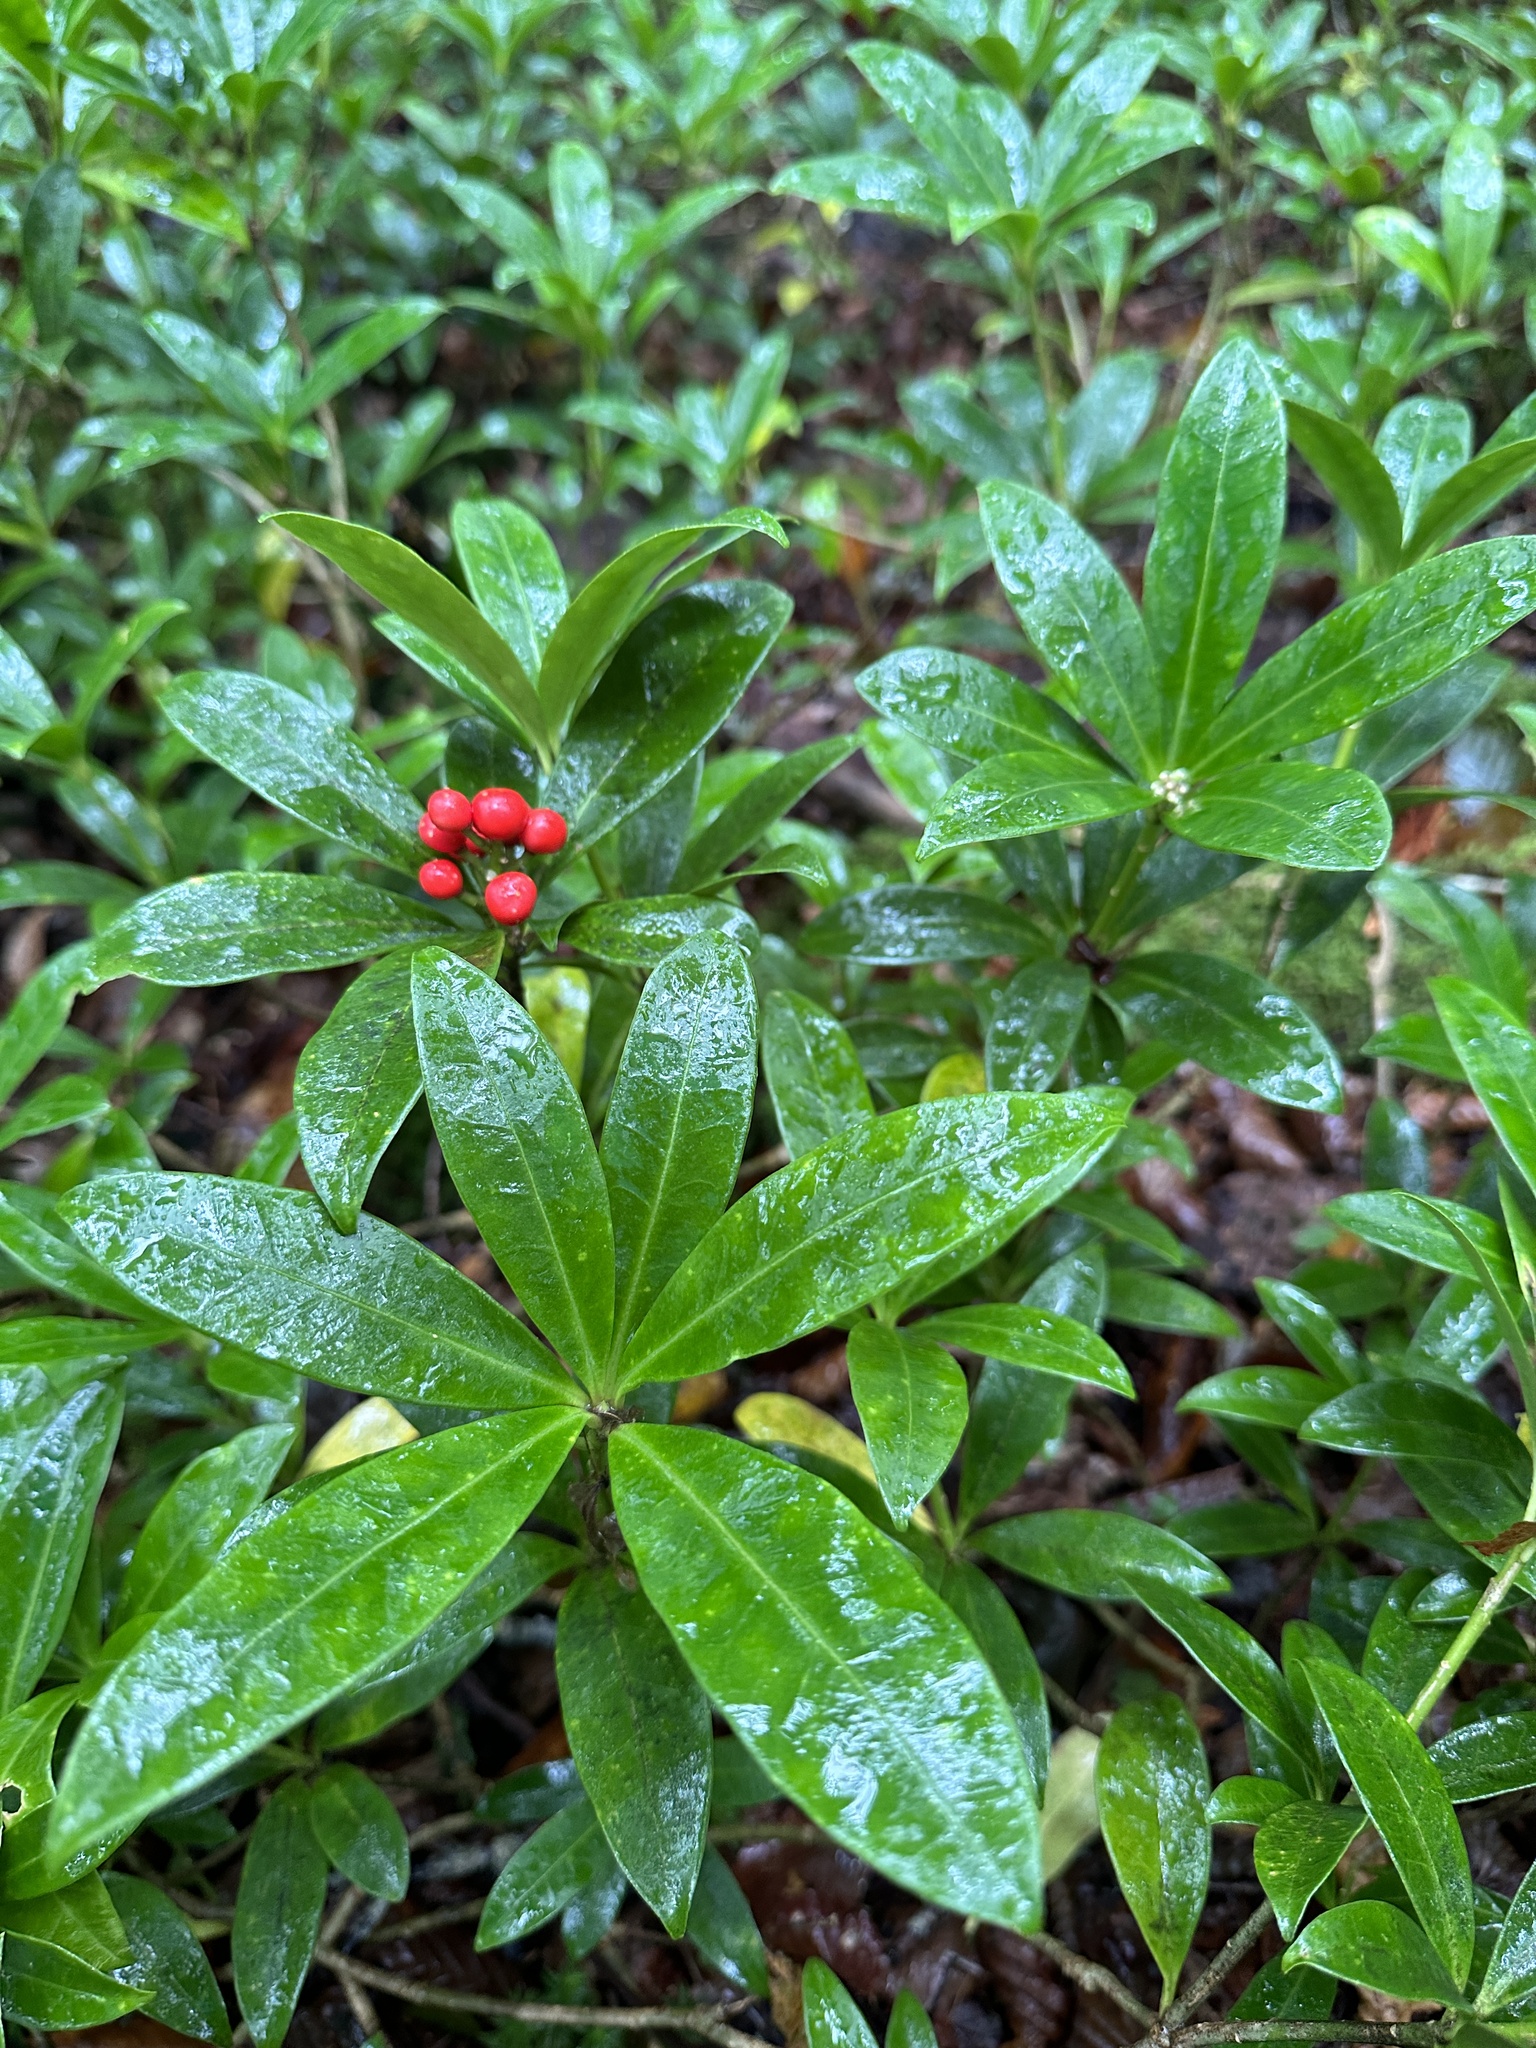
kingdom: Plantae
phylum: Tracheophyta
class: Magnoliopsida
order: Sapindales
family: Rutaceae
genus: Skimmia
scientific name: Skimmia japonica
